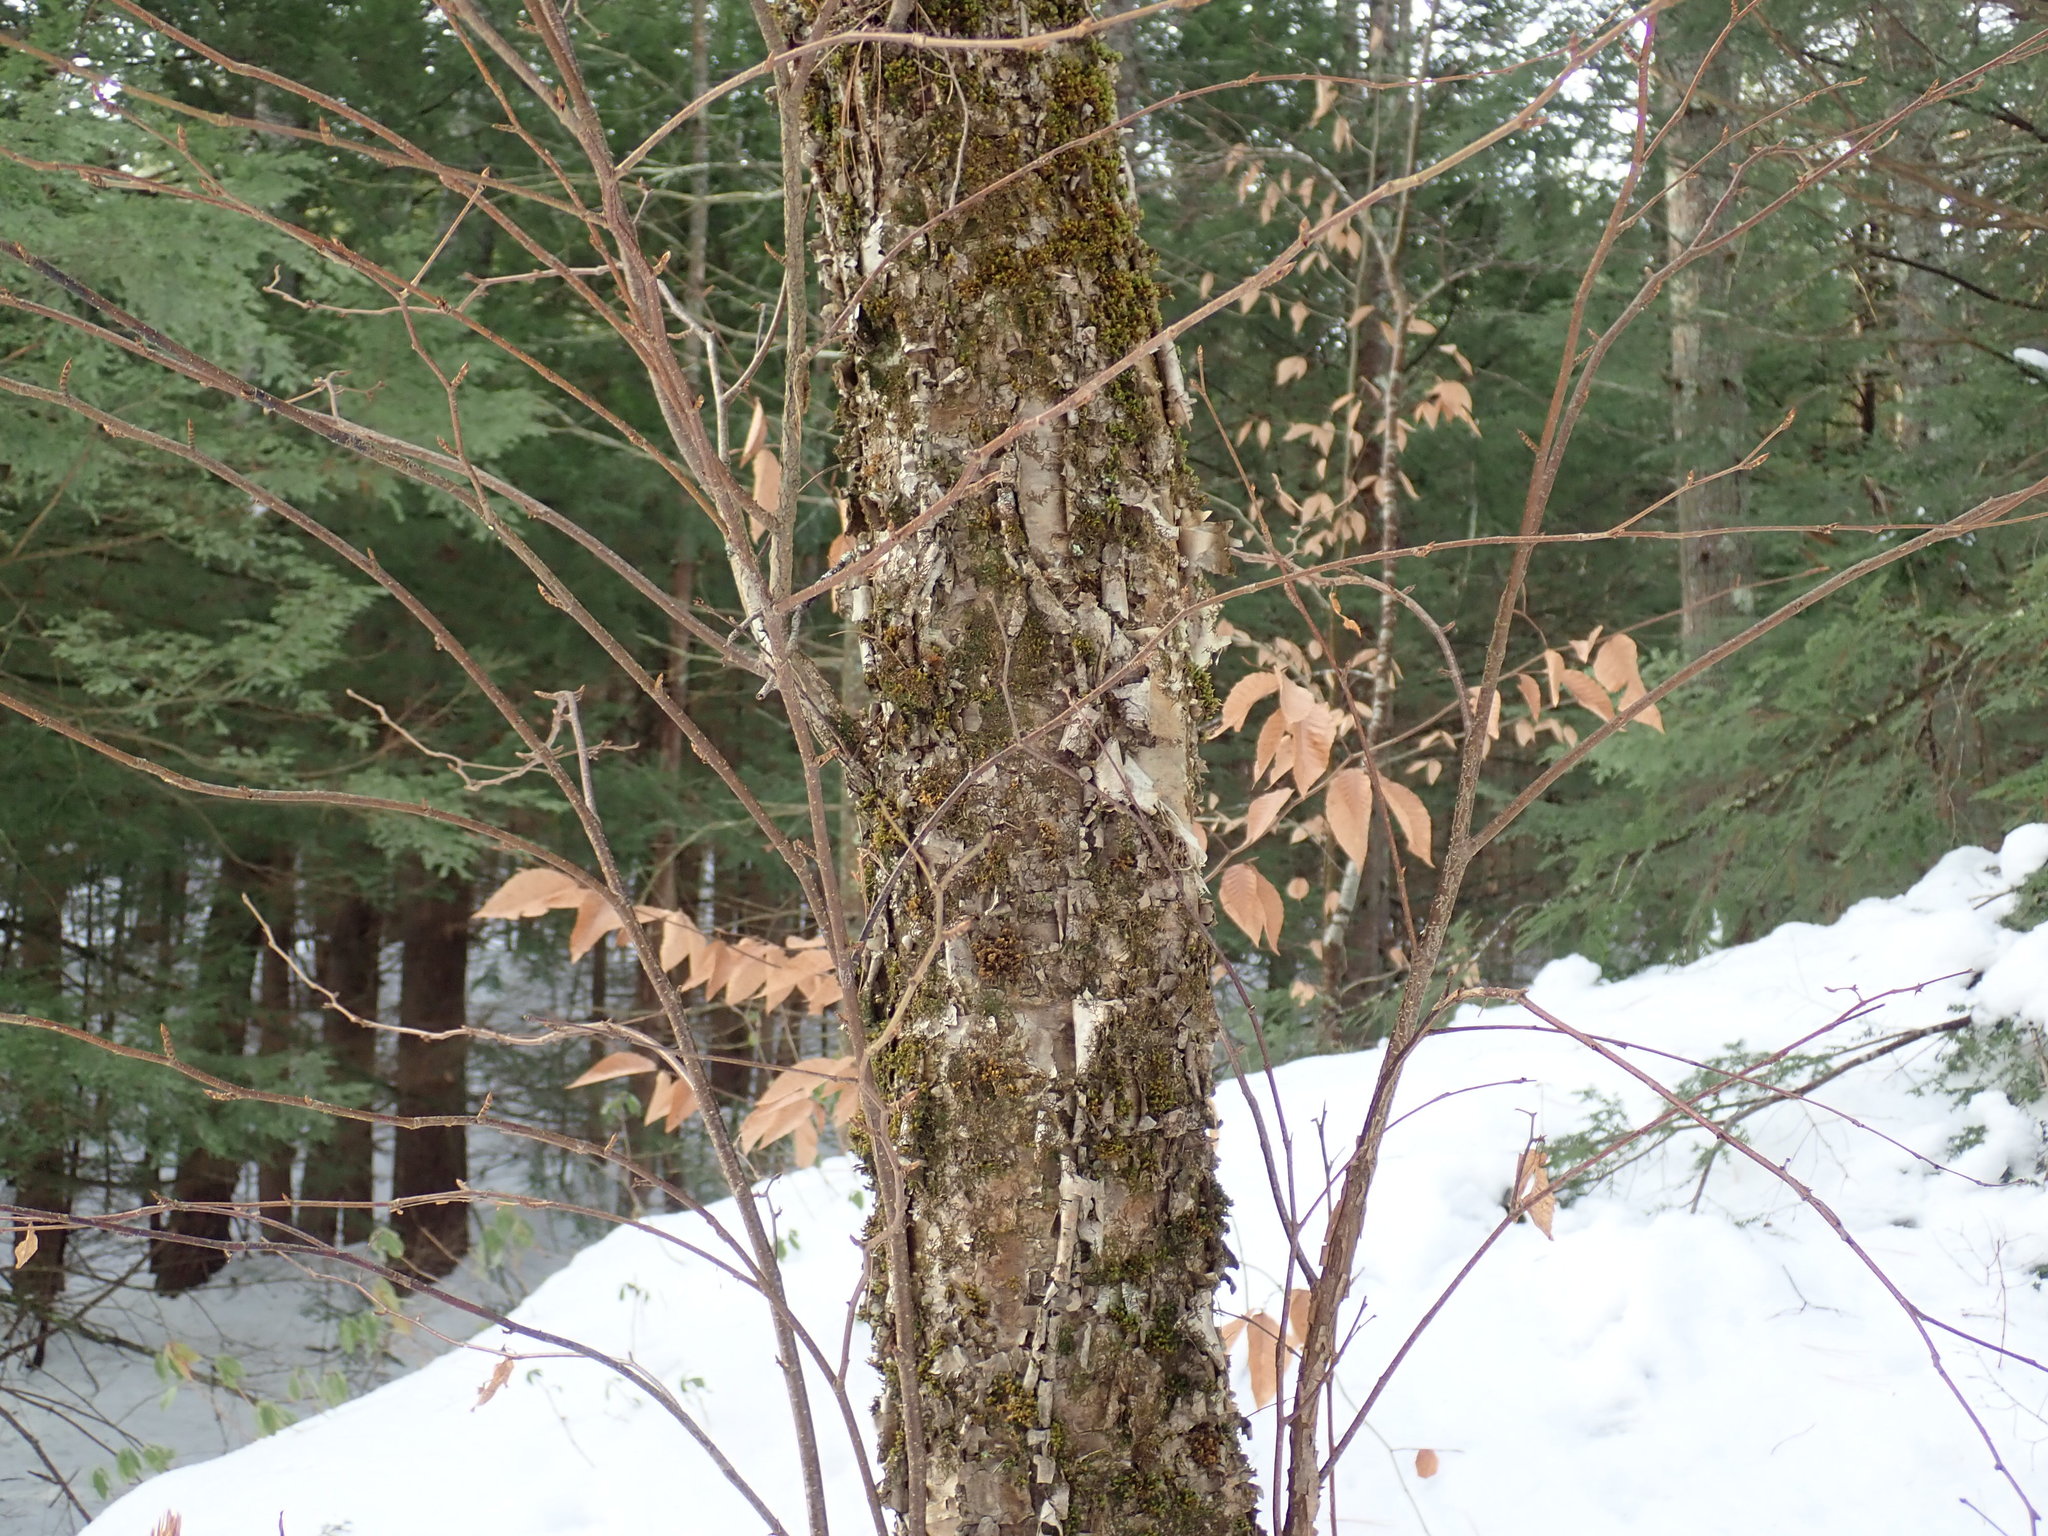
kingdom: Plantae
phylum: Tracheophyta
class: Magnoliopsida
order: Fagales
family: Betulaceae
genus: Betula
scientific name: Betula alleghaniensis
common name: Yellow birch
